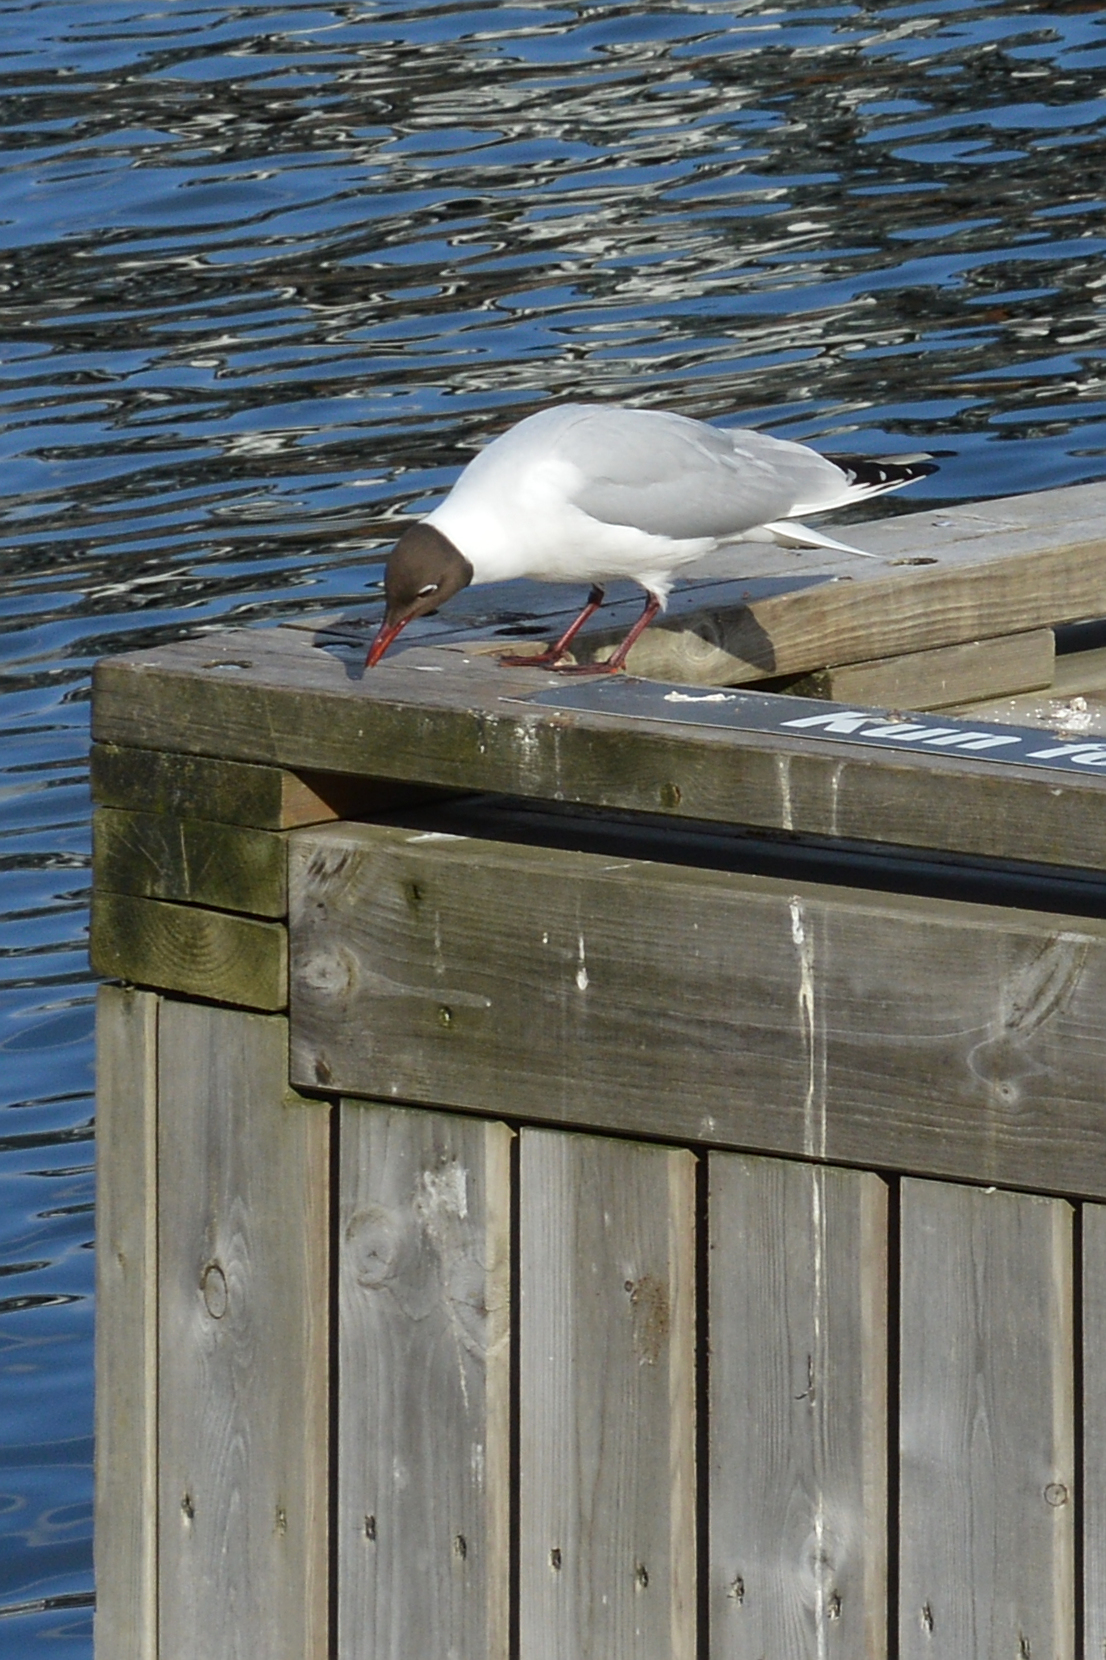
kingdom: Animalia
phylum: Chordata
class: Aves
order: Charadriiformes
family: Laridae
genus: Chroicocephalus
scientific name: Chroicocephalus ridibundus
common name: Black-headed gull
